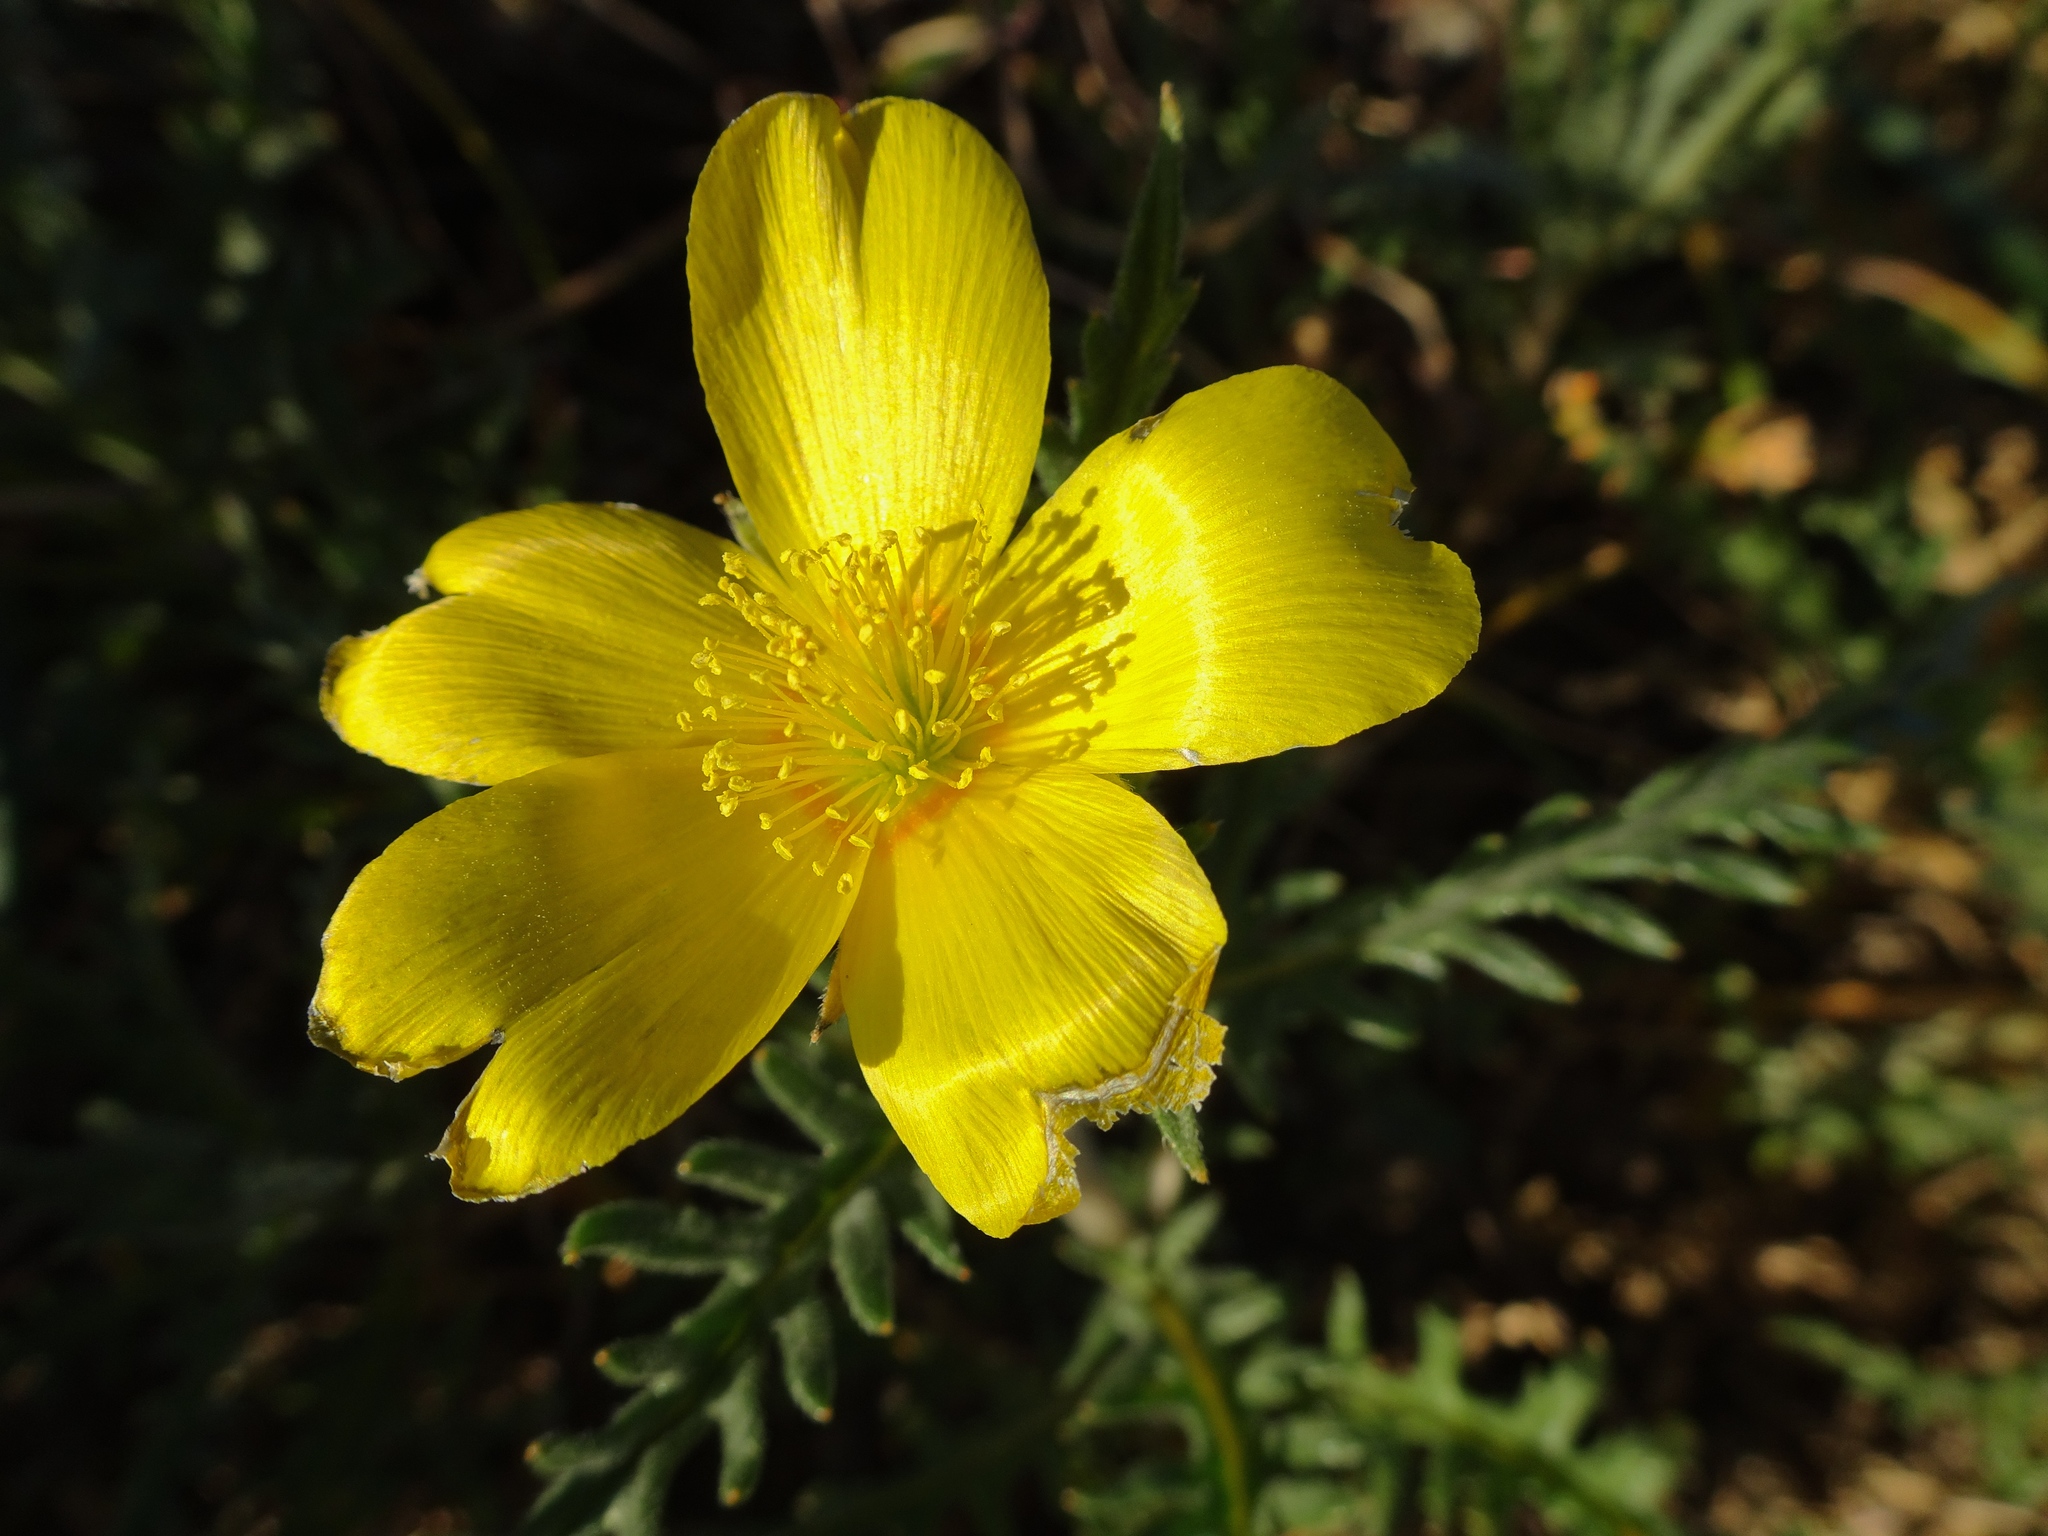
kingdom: Plantae
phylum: Tracheophyta
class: Magnoliopsida
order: Cornales
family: Loasaceae
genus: Mentzelia
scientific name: Mentzelia gracilenta
